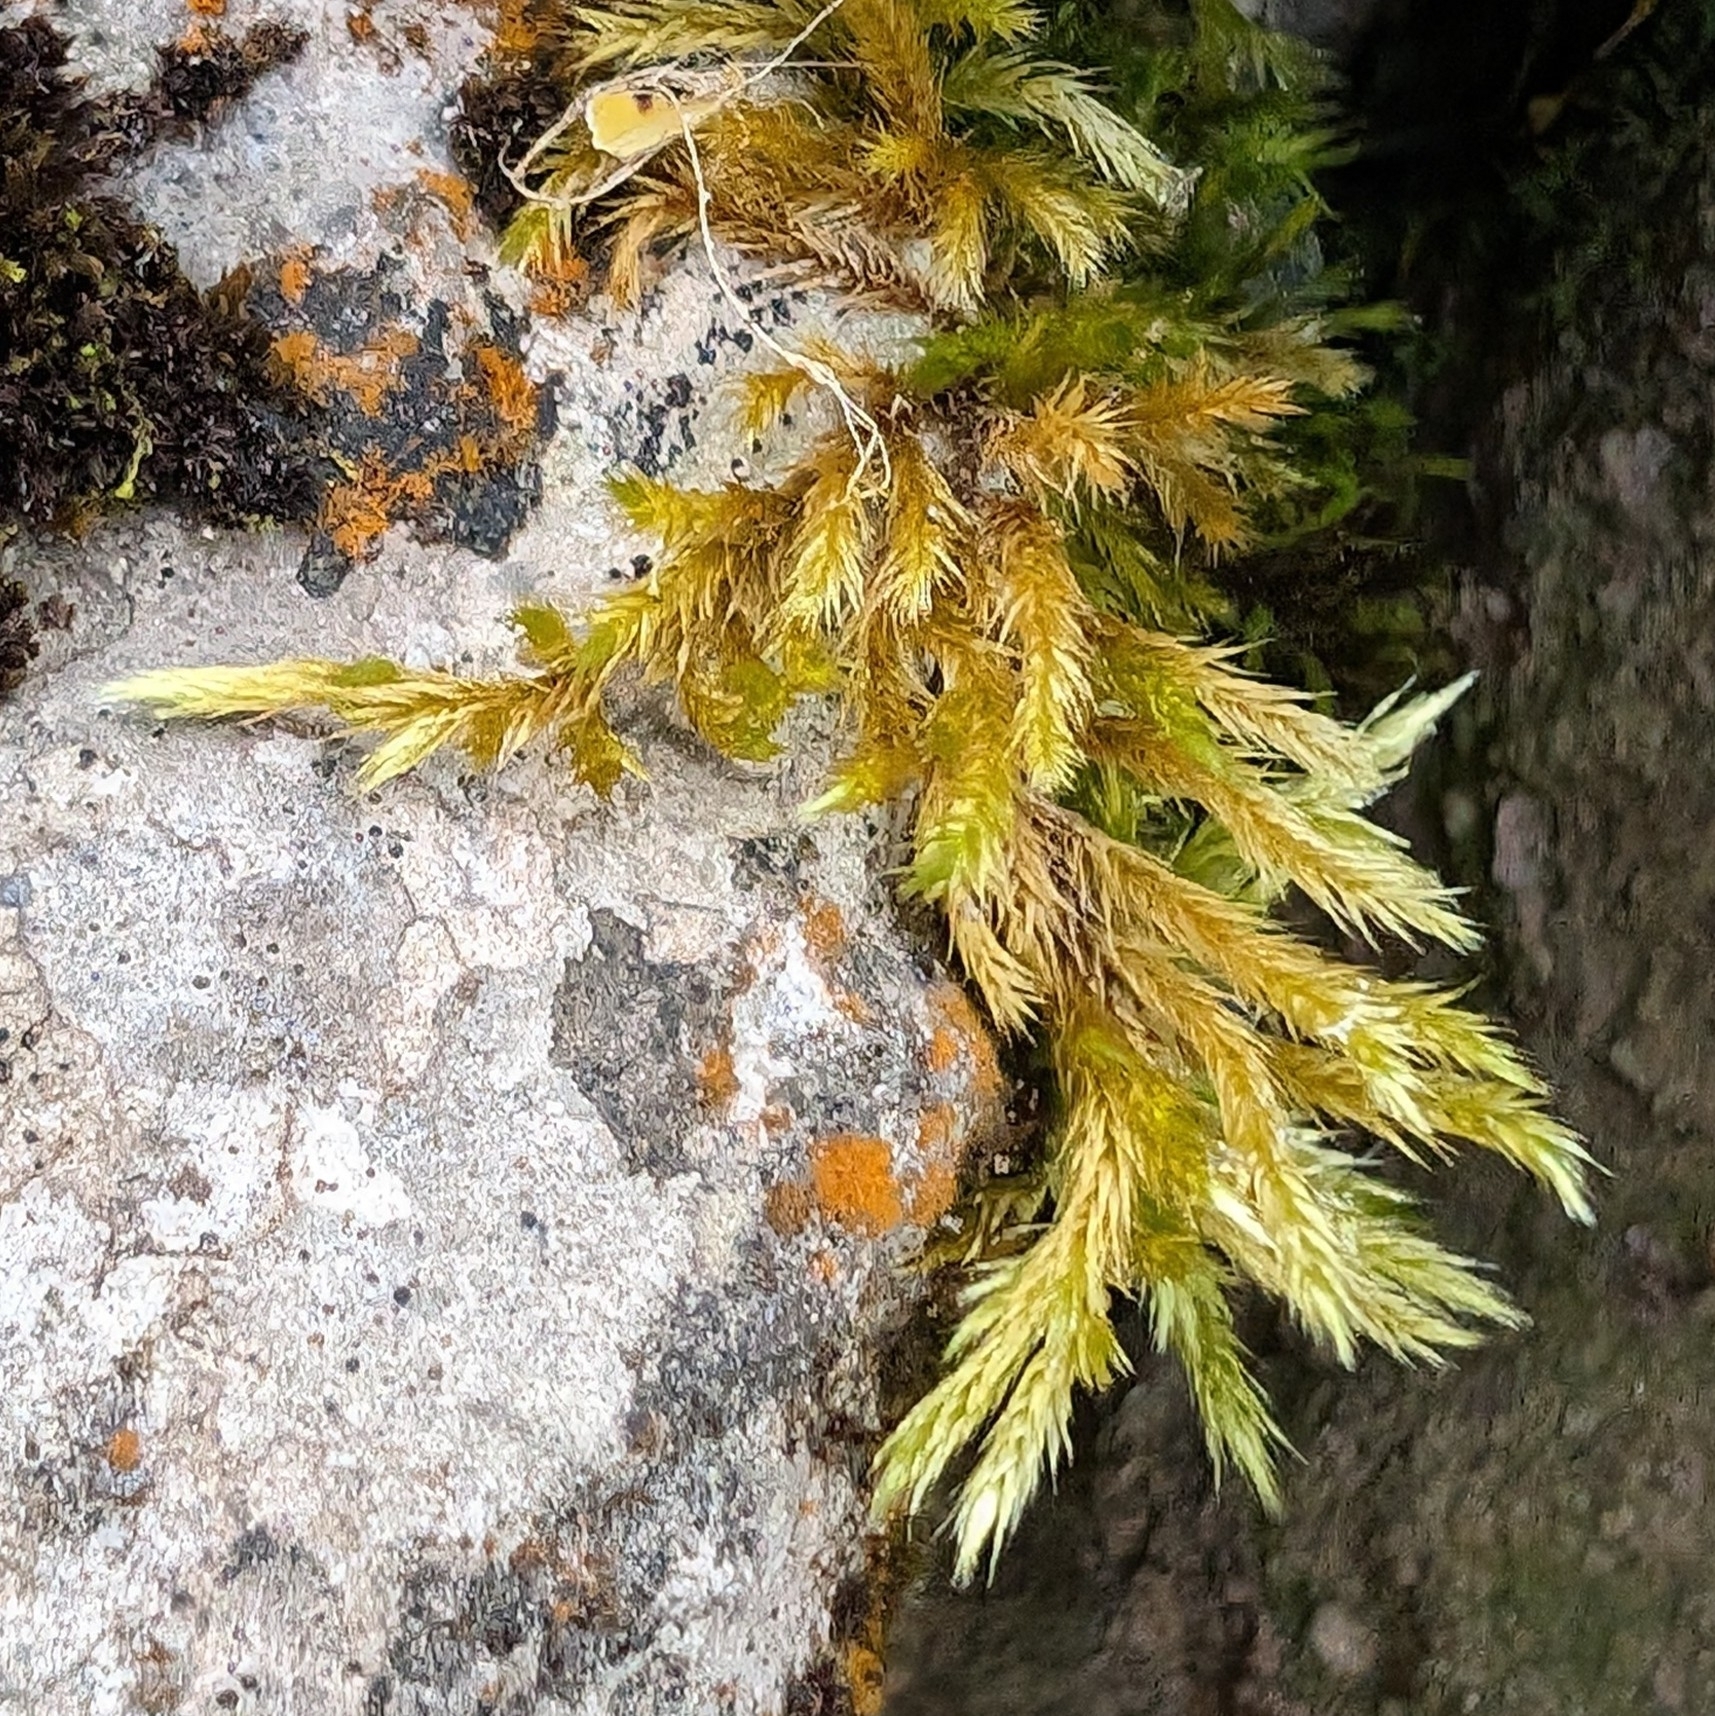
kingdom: Plantae
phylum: Bryophyta
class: Bryopsida
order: Hypnales
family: Brachytheciaceae
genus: Homalothecium
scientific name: Homalothecium lutescens
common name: Yellow feather-moss
